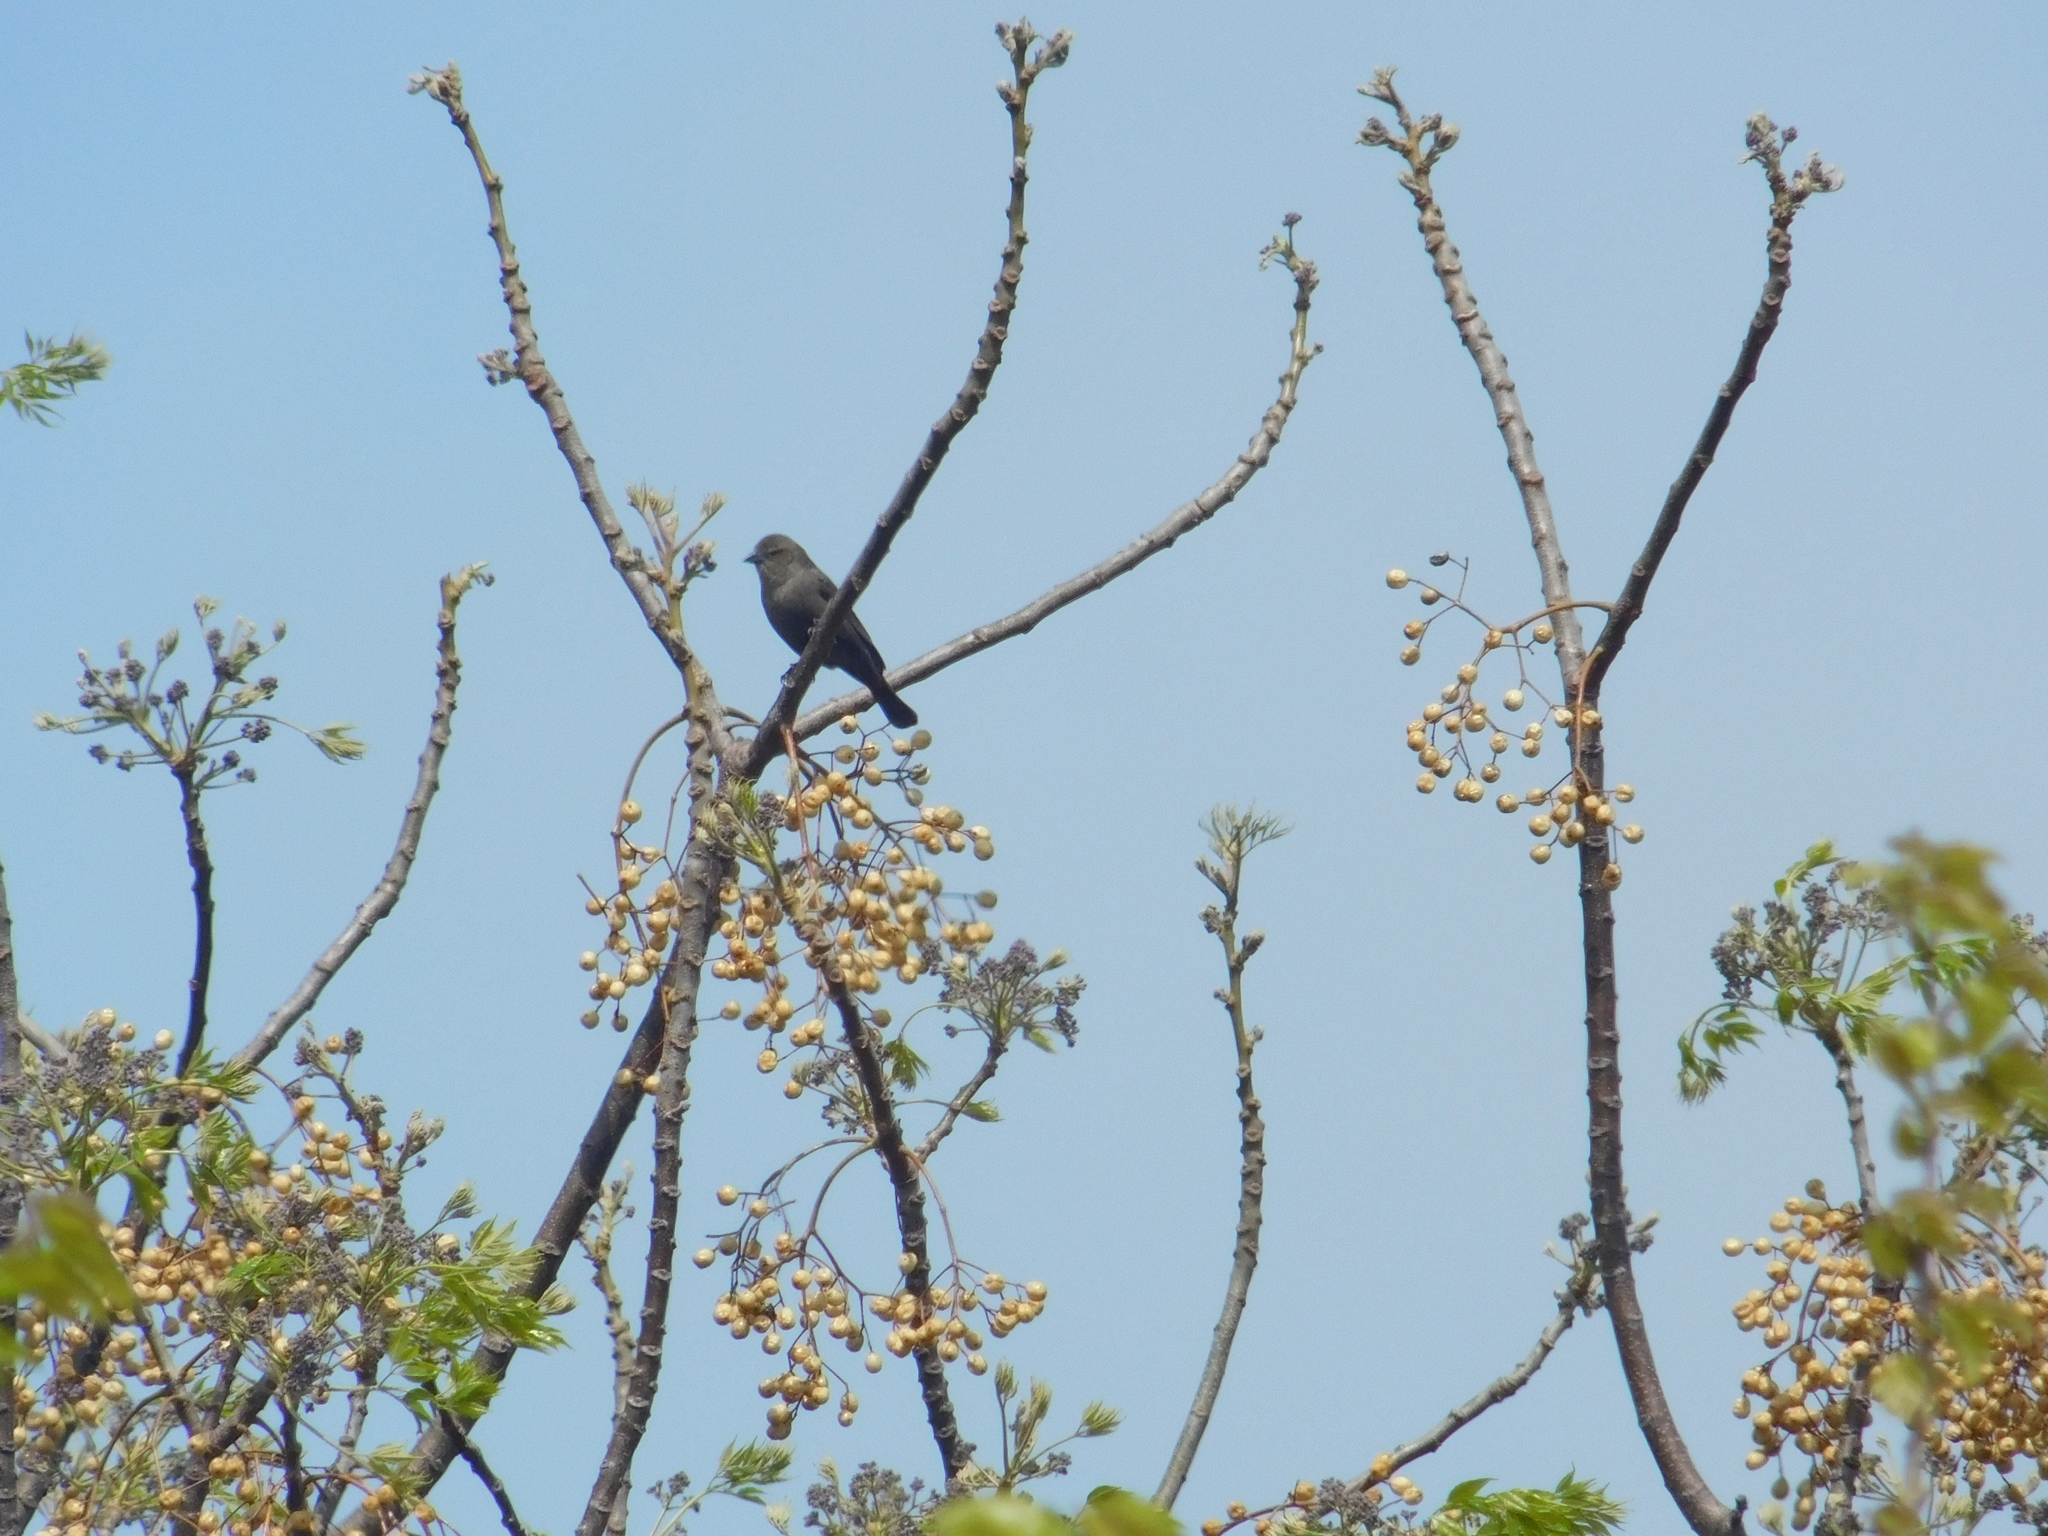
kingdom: Animalia
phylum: Chordata
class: Aves
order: Passeriformes
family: Icteridae
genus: Molothrus
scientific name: Molothrus bonariensis
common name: Shiny cowbird
